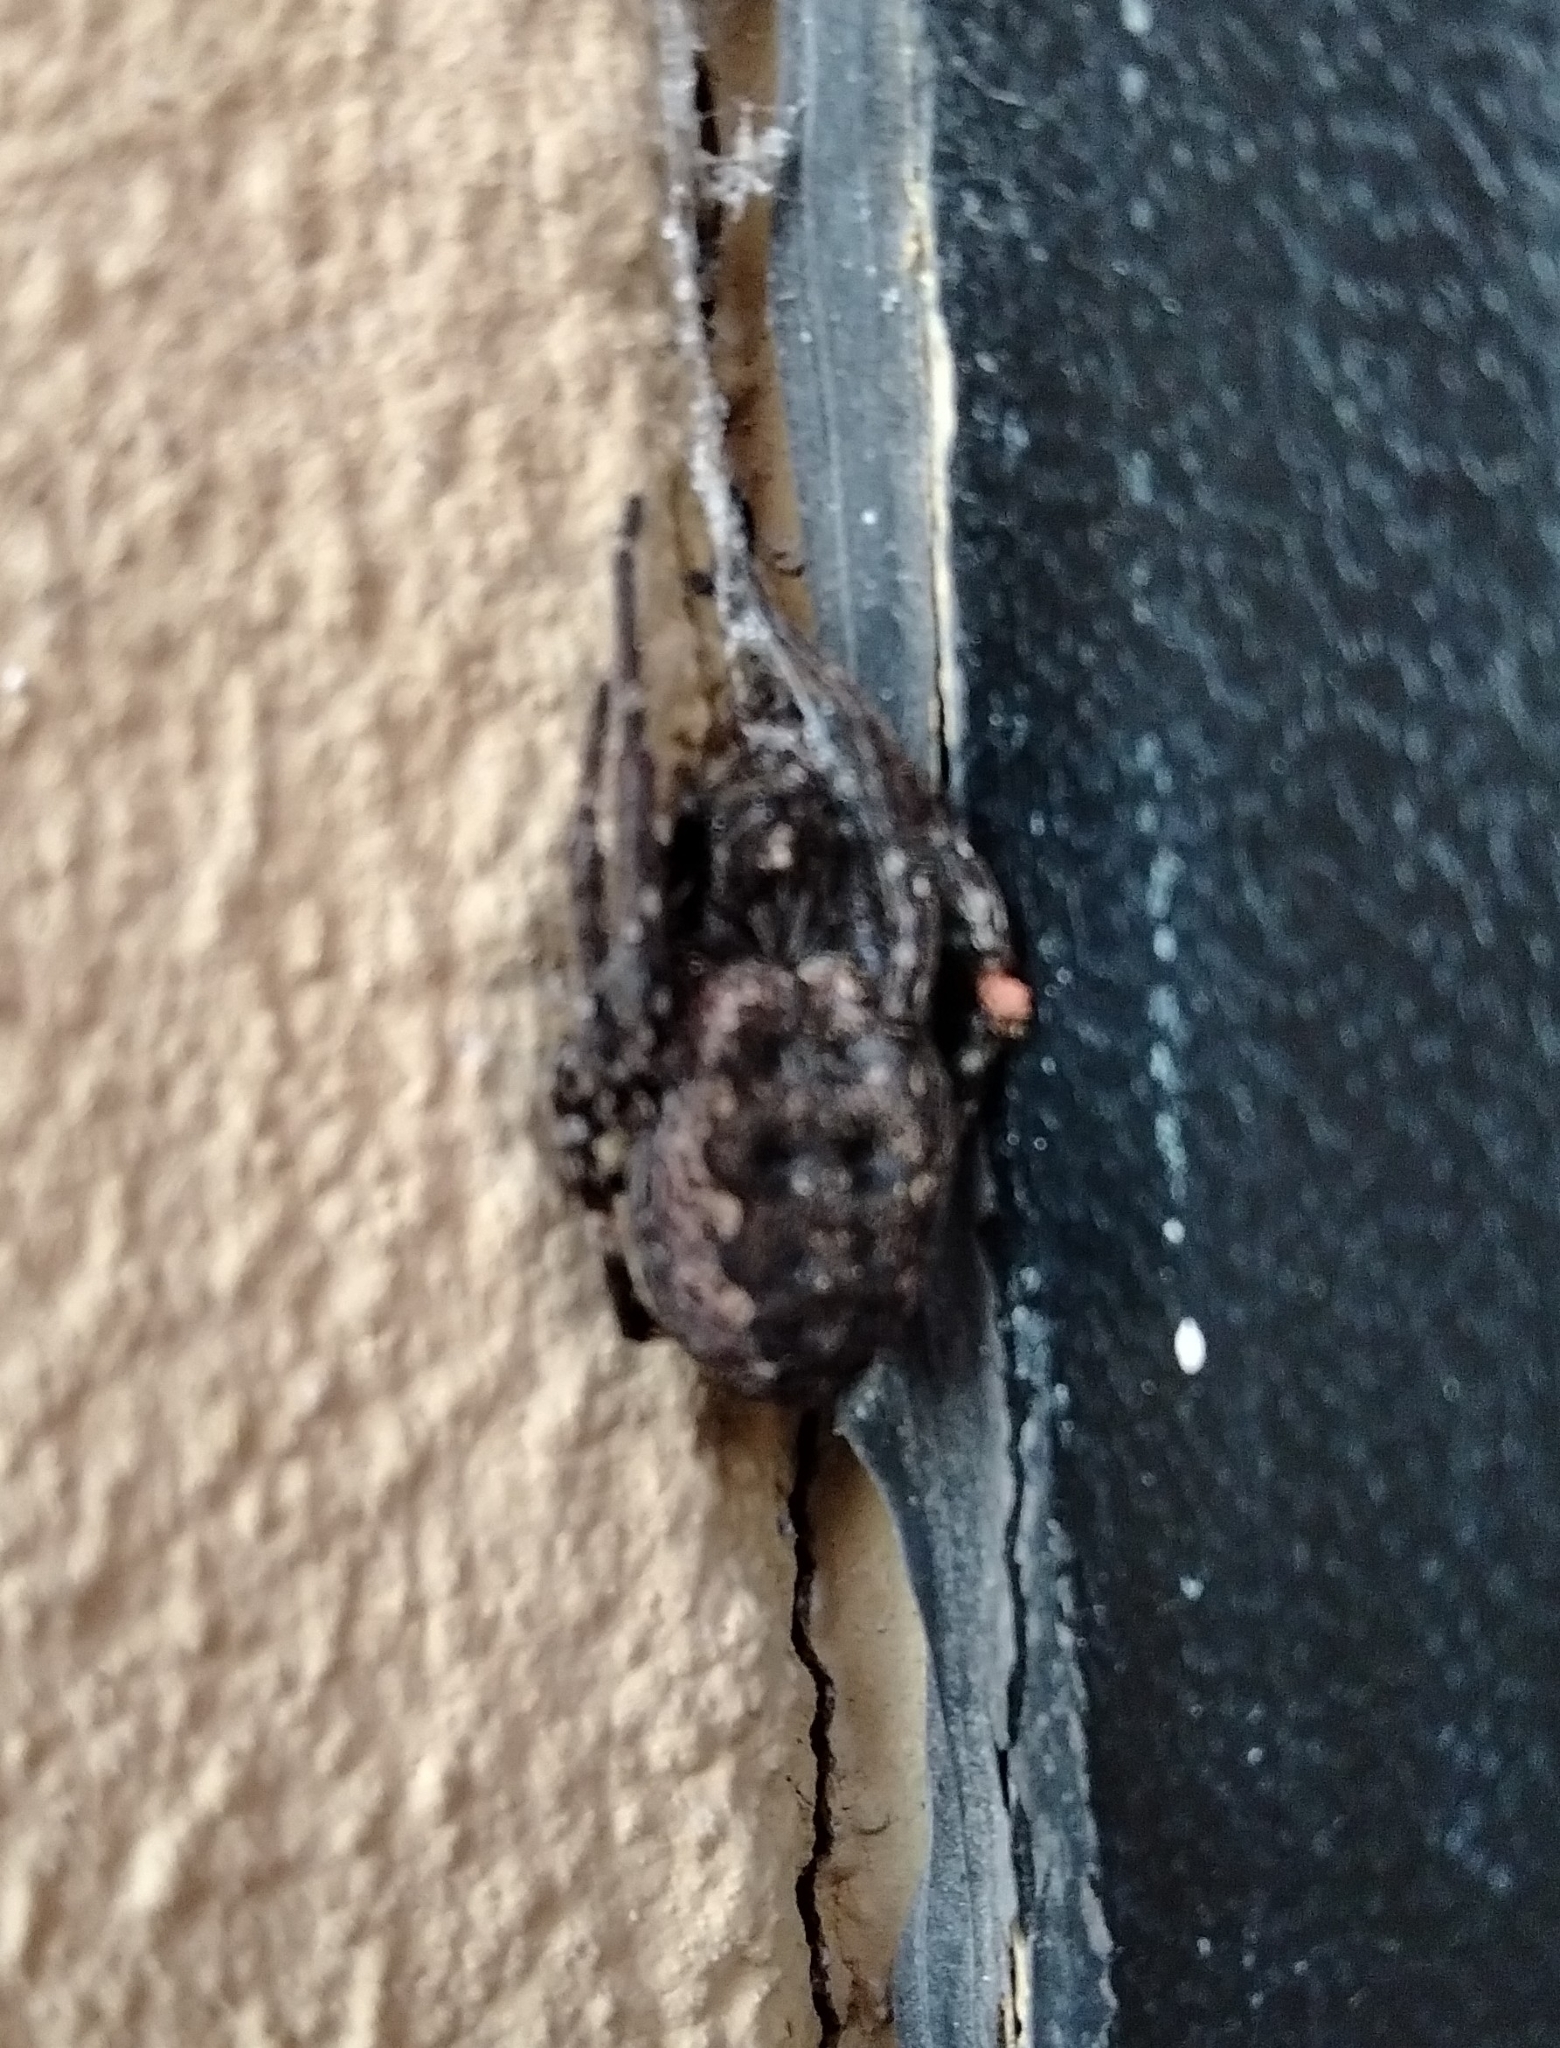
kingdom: Animalia
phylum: Arthropoda
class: Arachnida
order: Araneae
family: Araneidae
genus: Nuctenea
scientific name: Nuctenea umbratica
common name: Toad spider
